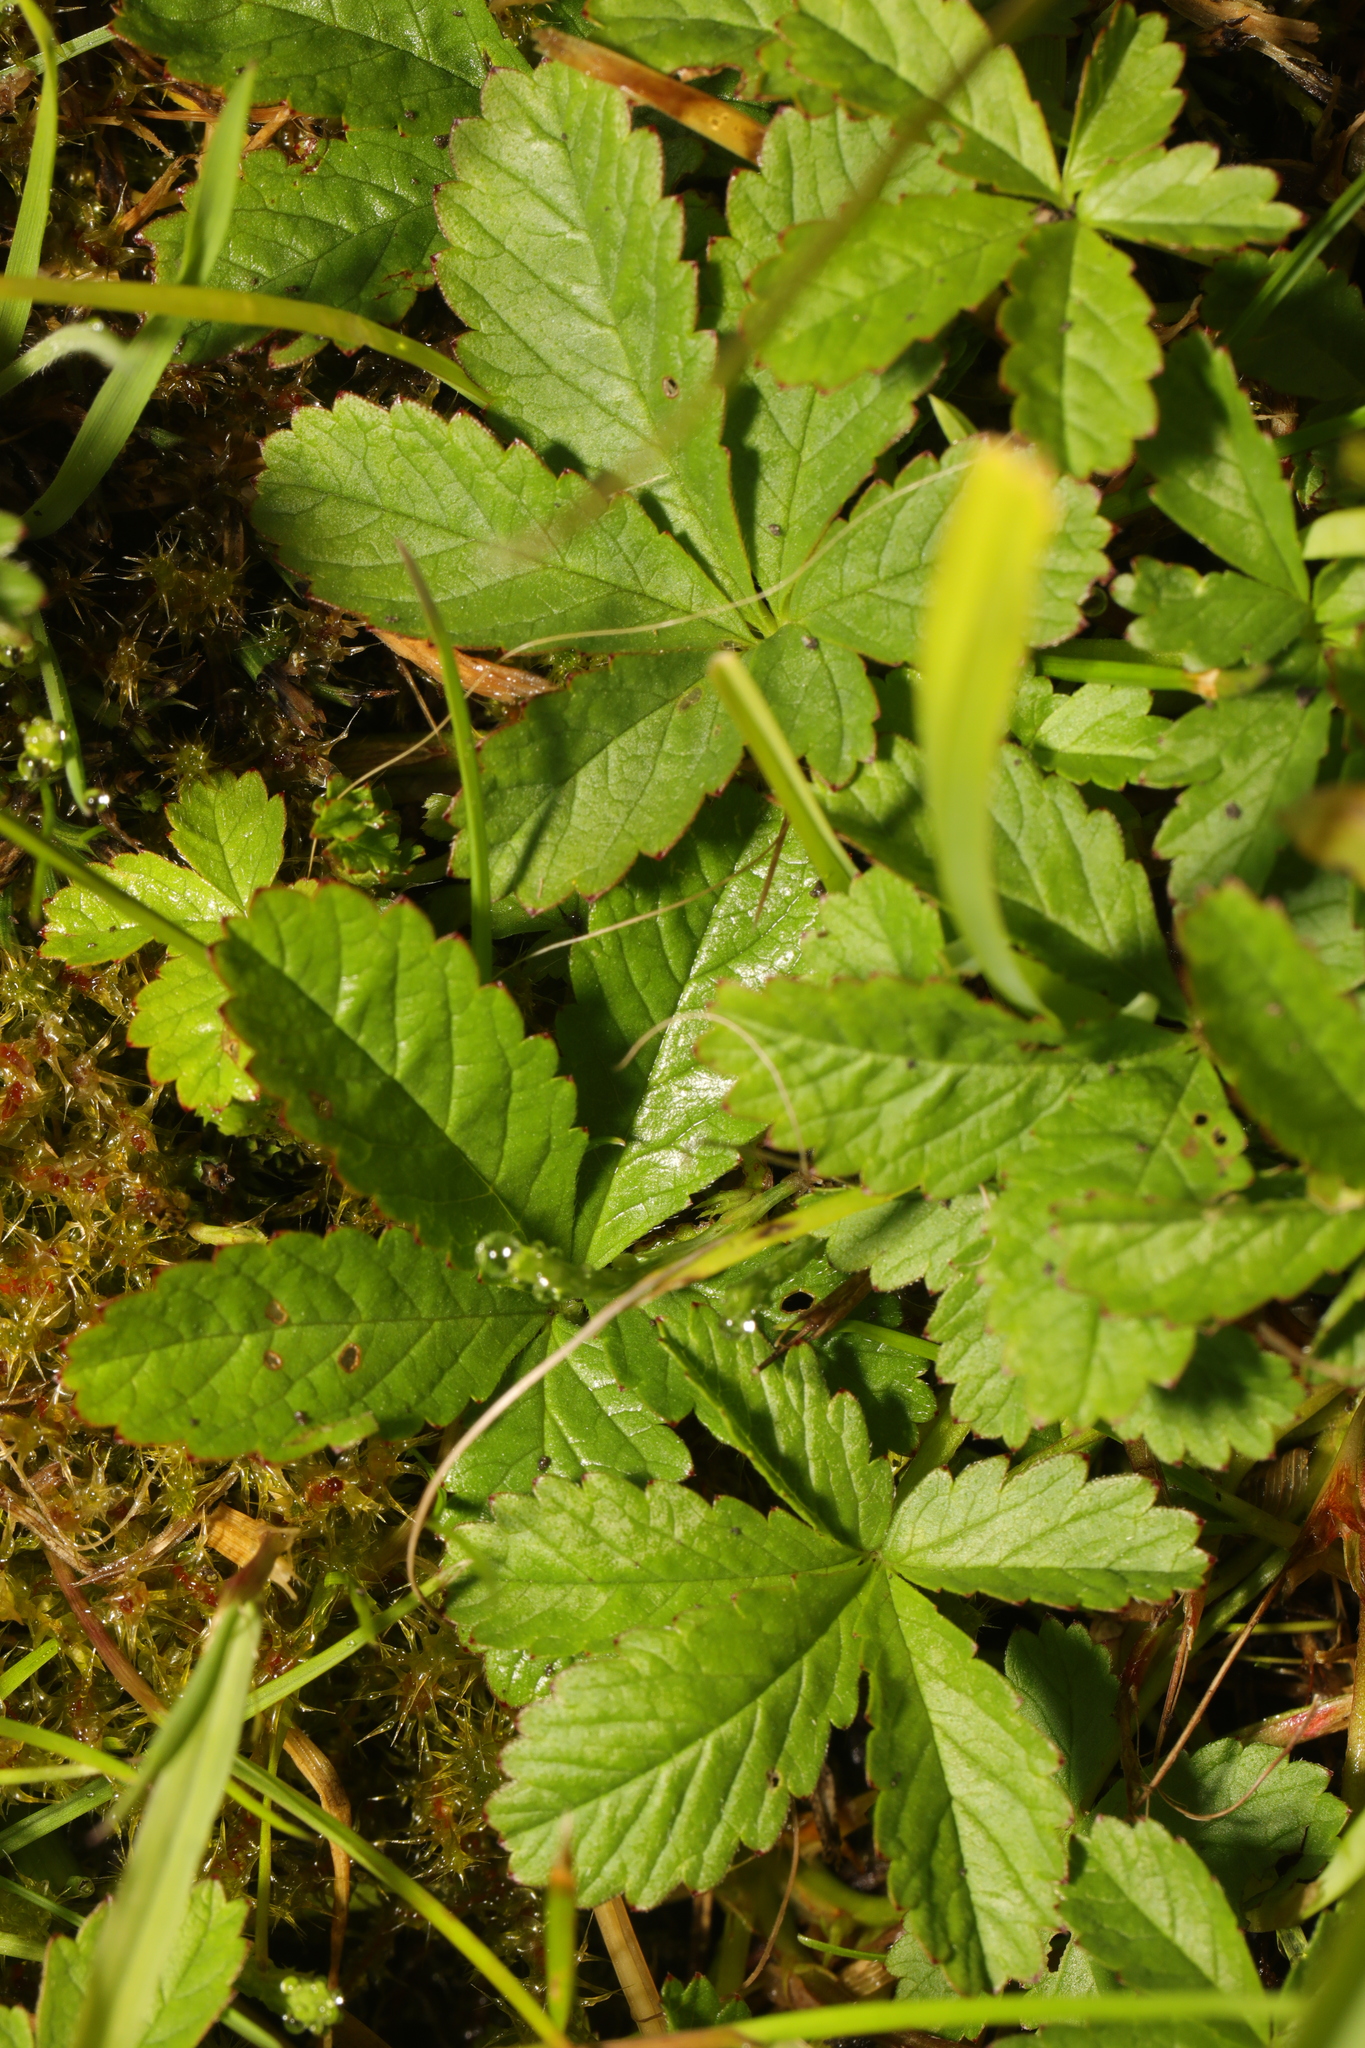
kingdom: Plantae
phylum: Tracheophyta
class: Magnoliopsida
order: Rosales
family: Rosaceae
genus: Potentilla
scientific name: Potentilla reptans
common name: Creeping cinquefoil
